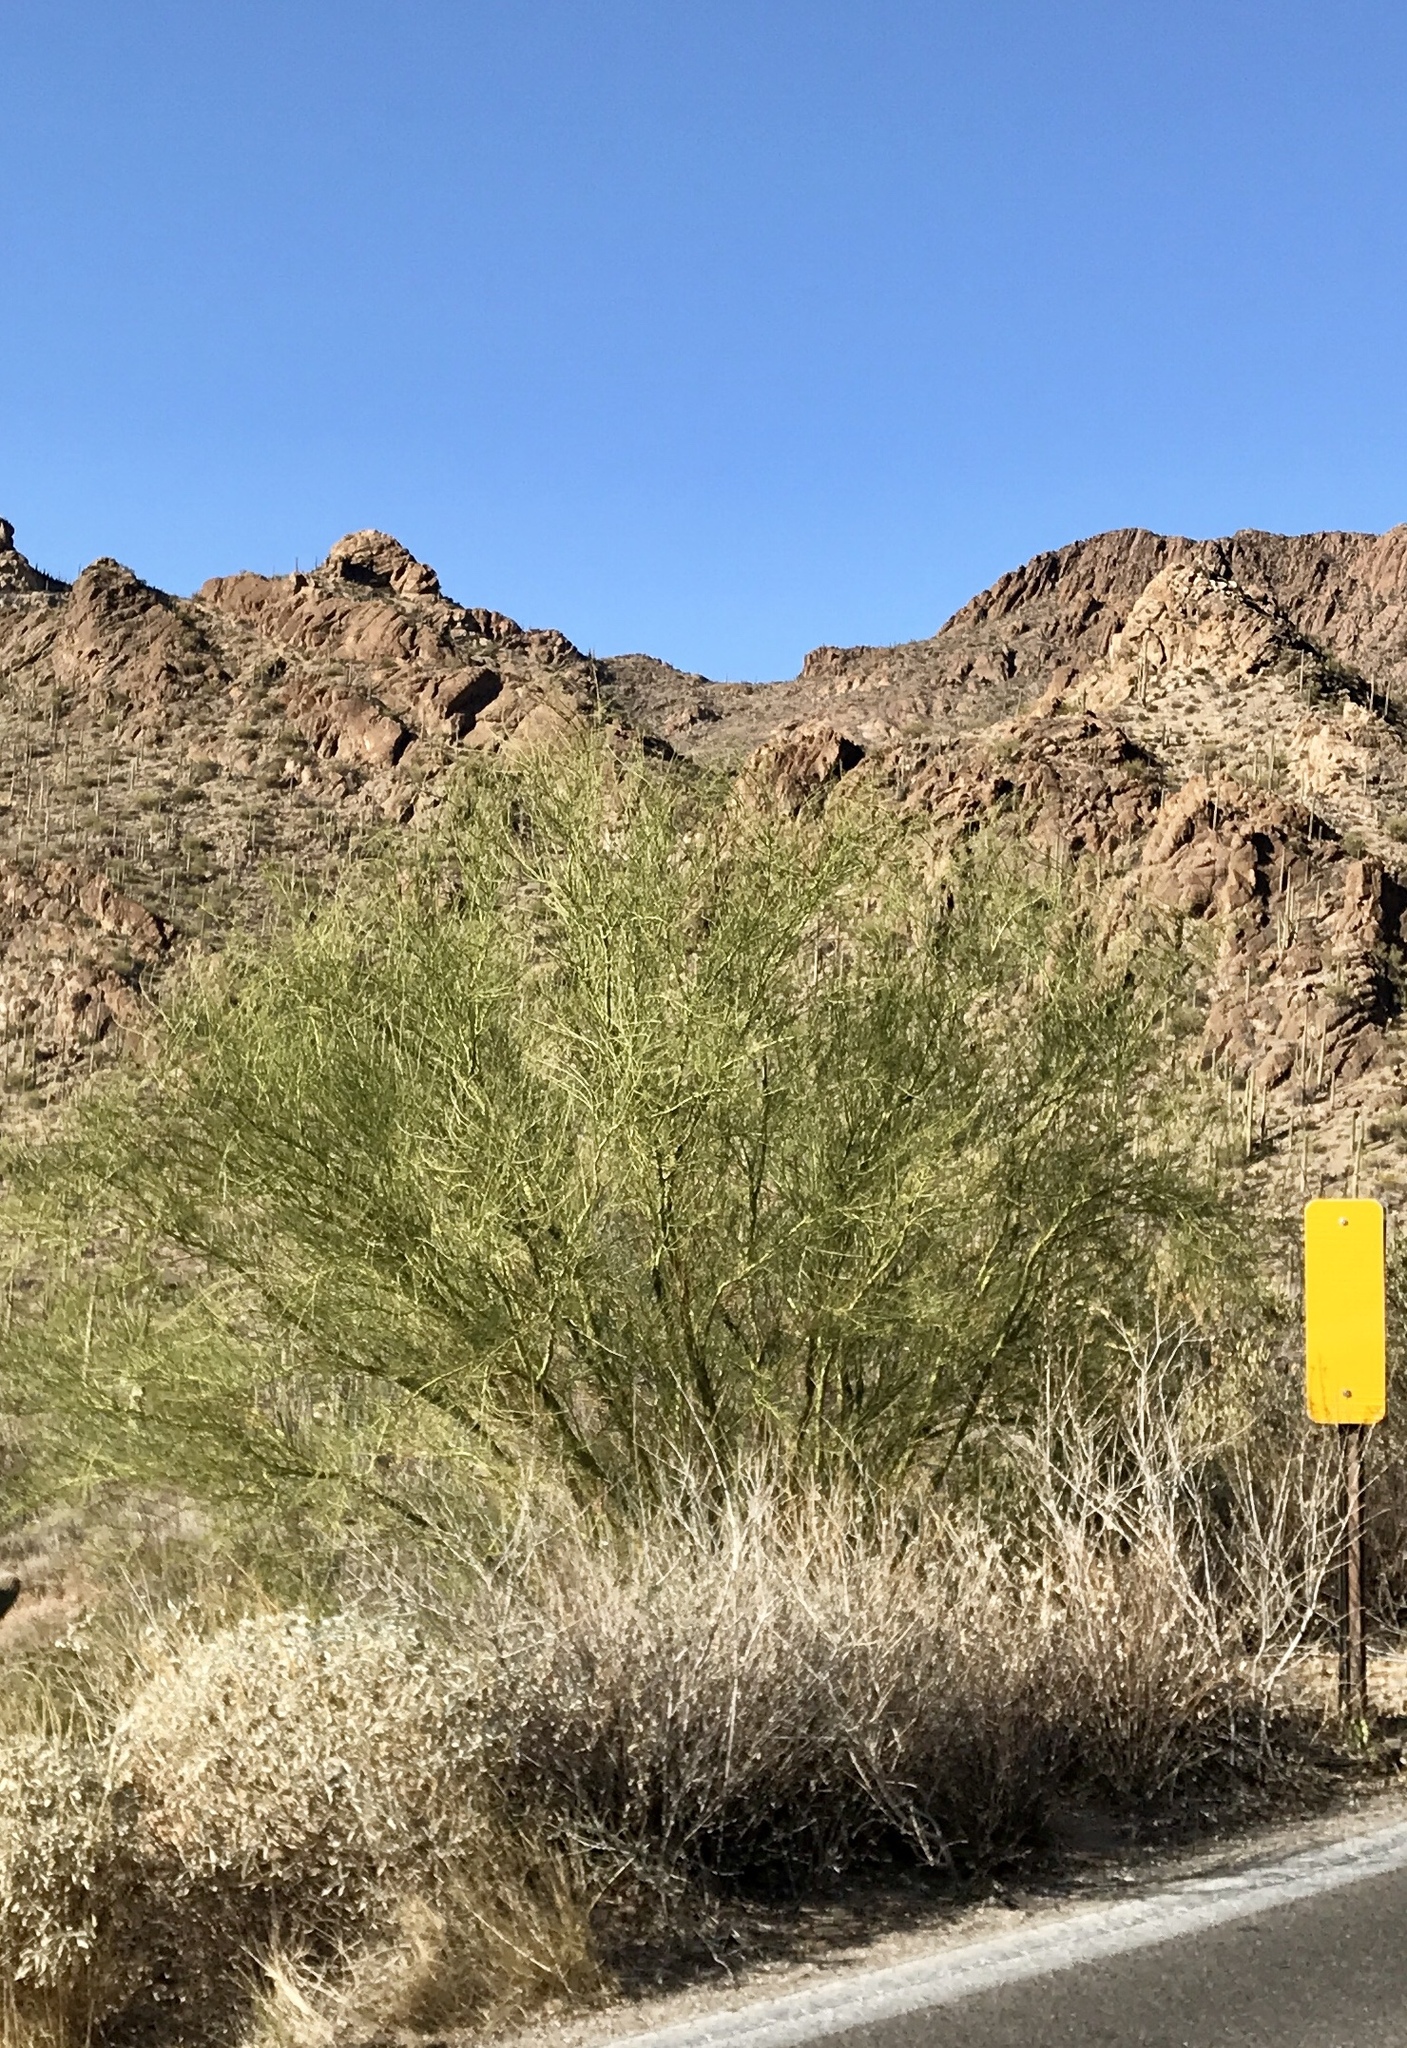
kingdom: Plantae
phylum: Tracheophyta
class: Magnoliopsida
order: Fabales
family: Fabaceae
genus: Parkinsonia
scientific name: Parkinsonia microphylla
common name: Yellow paloverde
